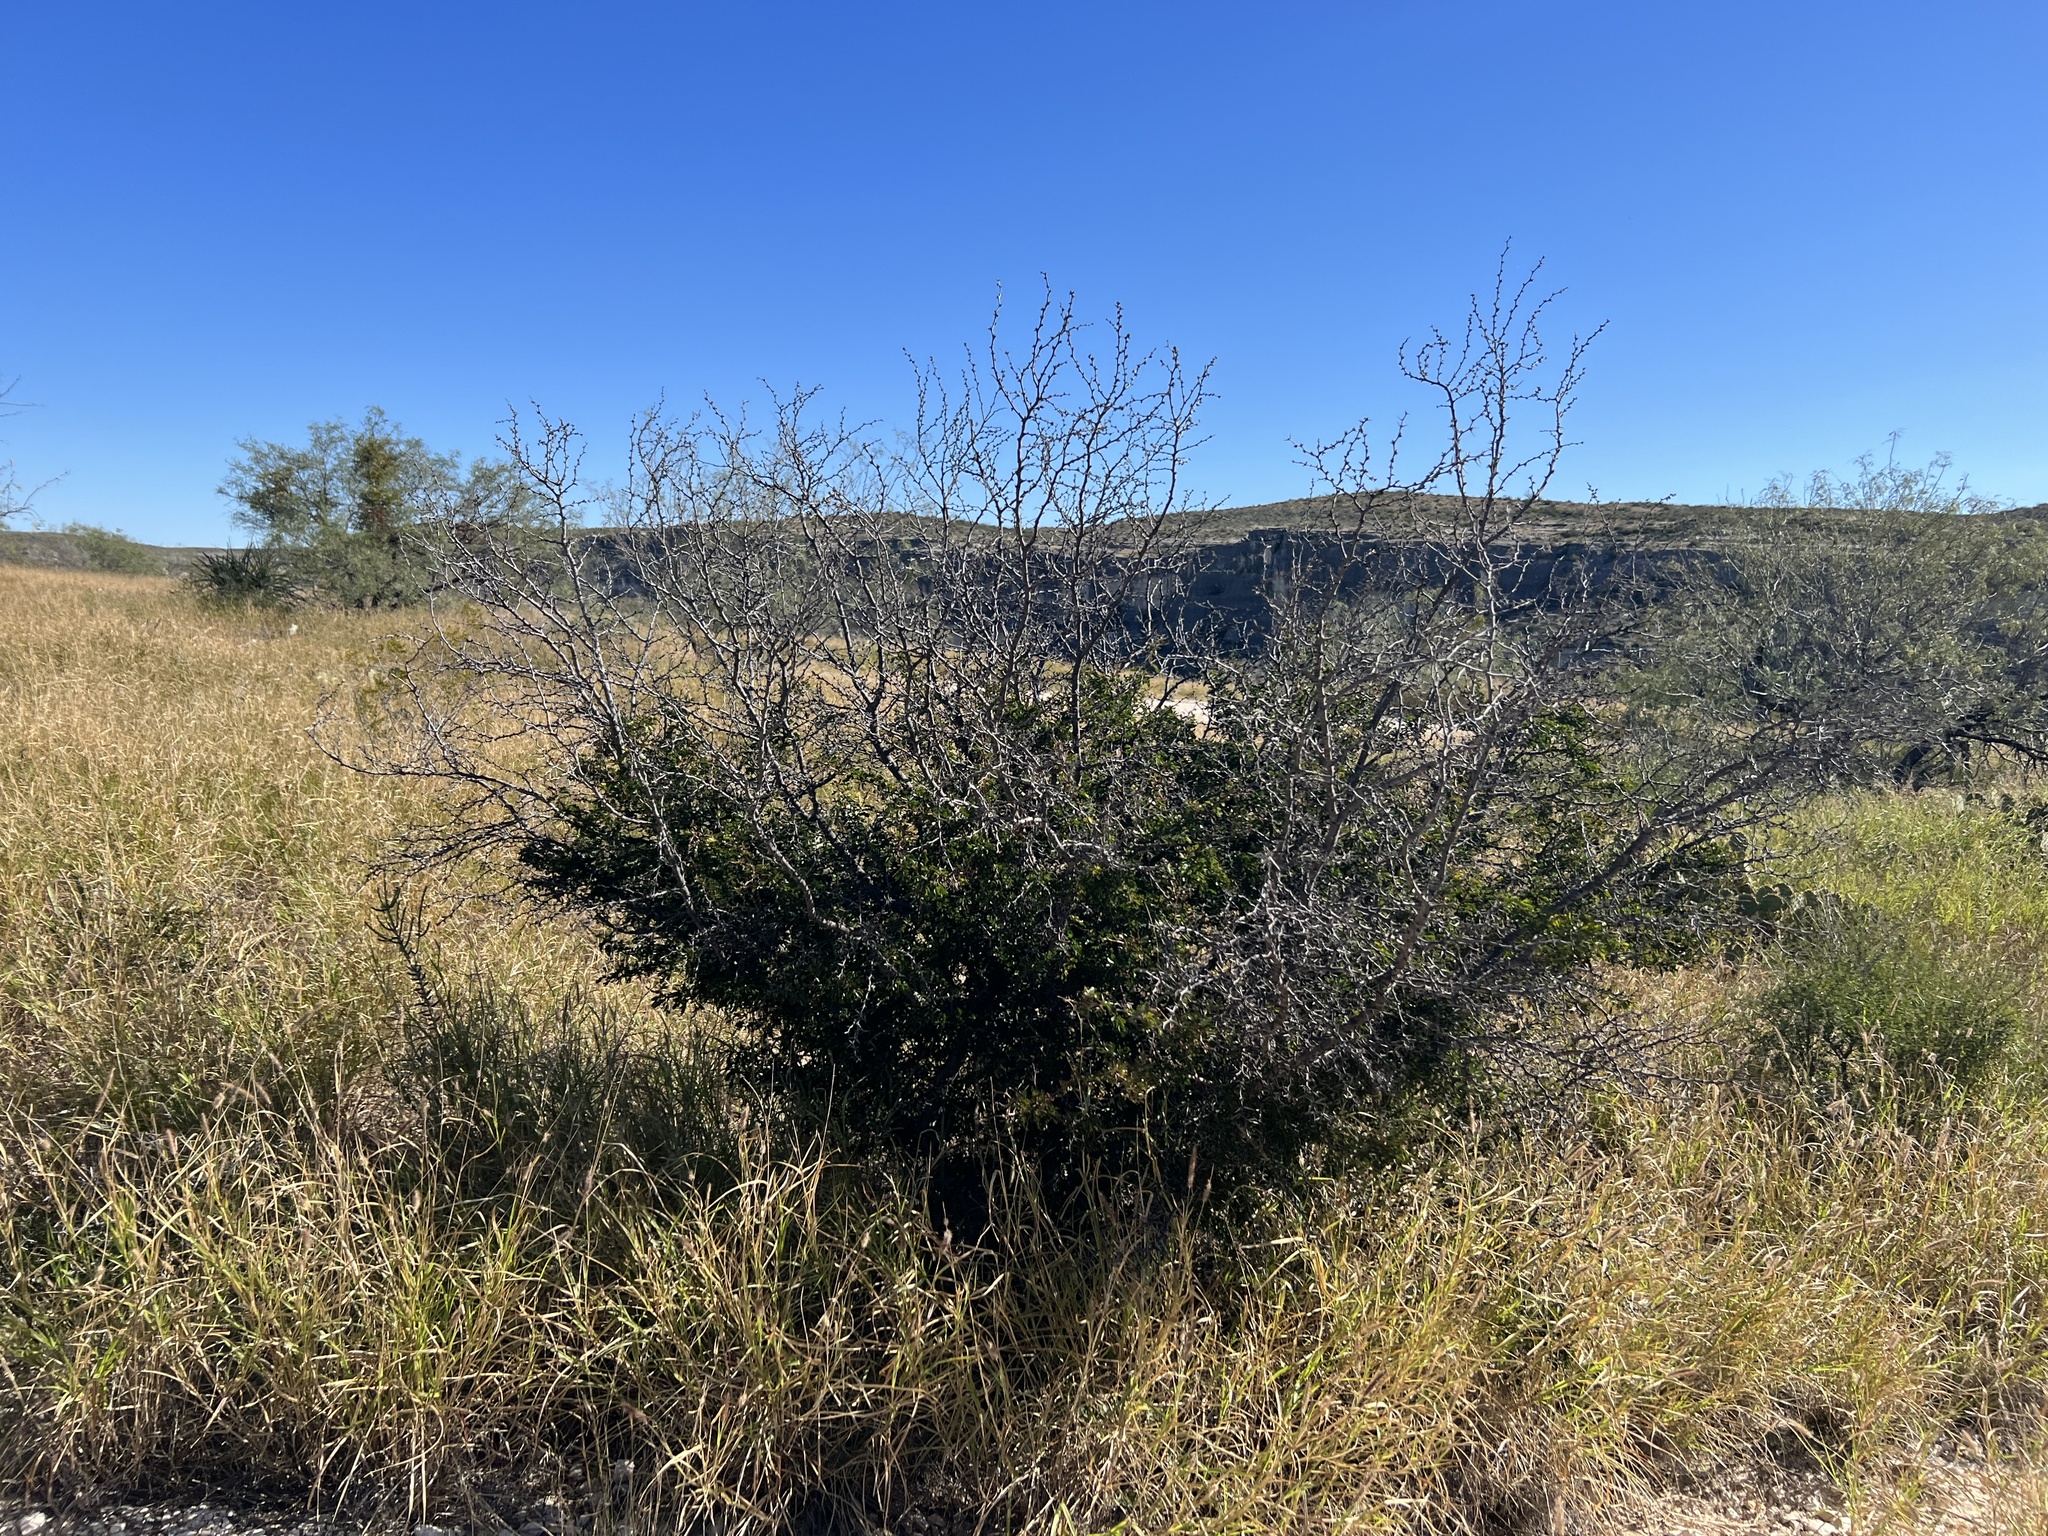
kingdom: Plantae
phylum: Tracheophyta
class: Magnoliopsida
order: Zygophyllales
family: Zygophyllaceae
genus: Porlieria
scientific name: Porlieria angustifolia
